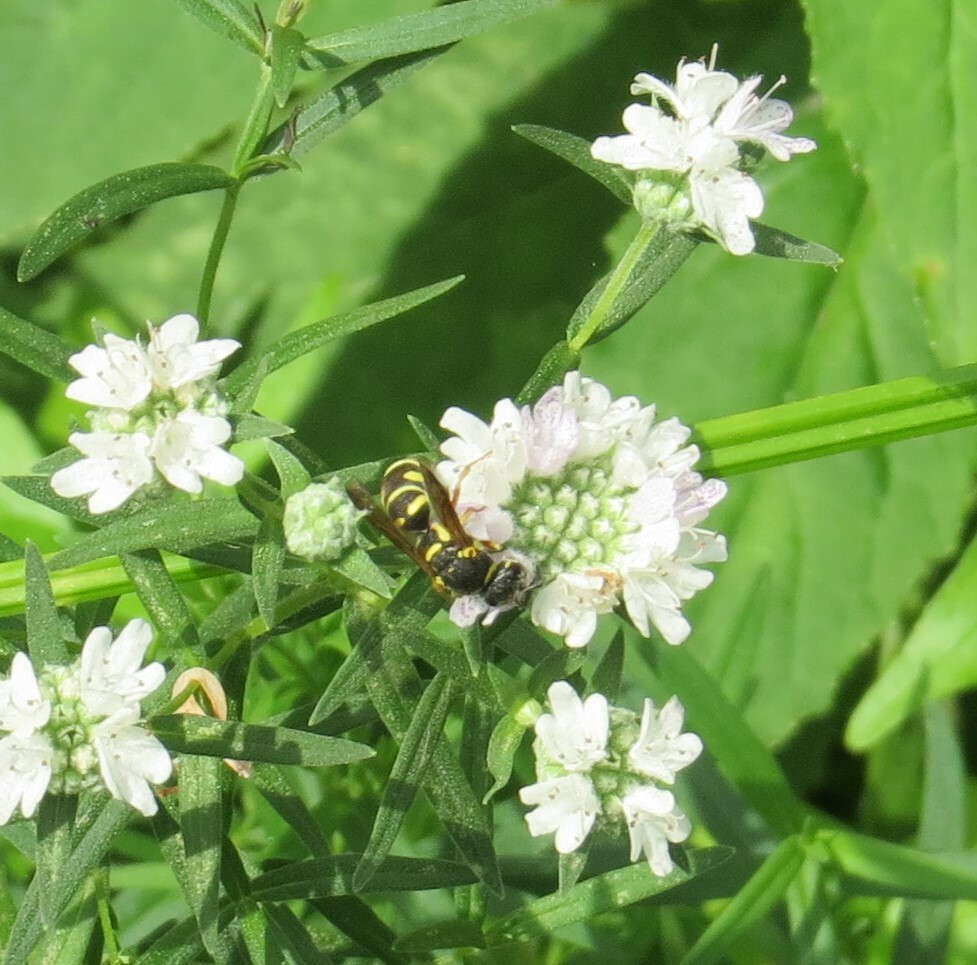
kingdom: Animalia
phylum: Arthropoda
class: Insecta
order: Hymenoptera
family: Eumenidae
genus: Parancistrocerus
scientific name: Parancistrocerus leionotus
